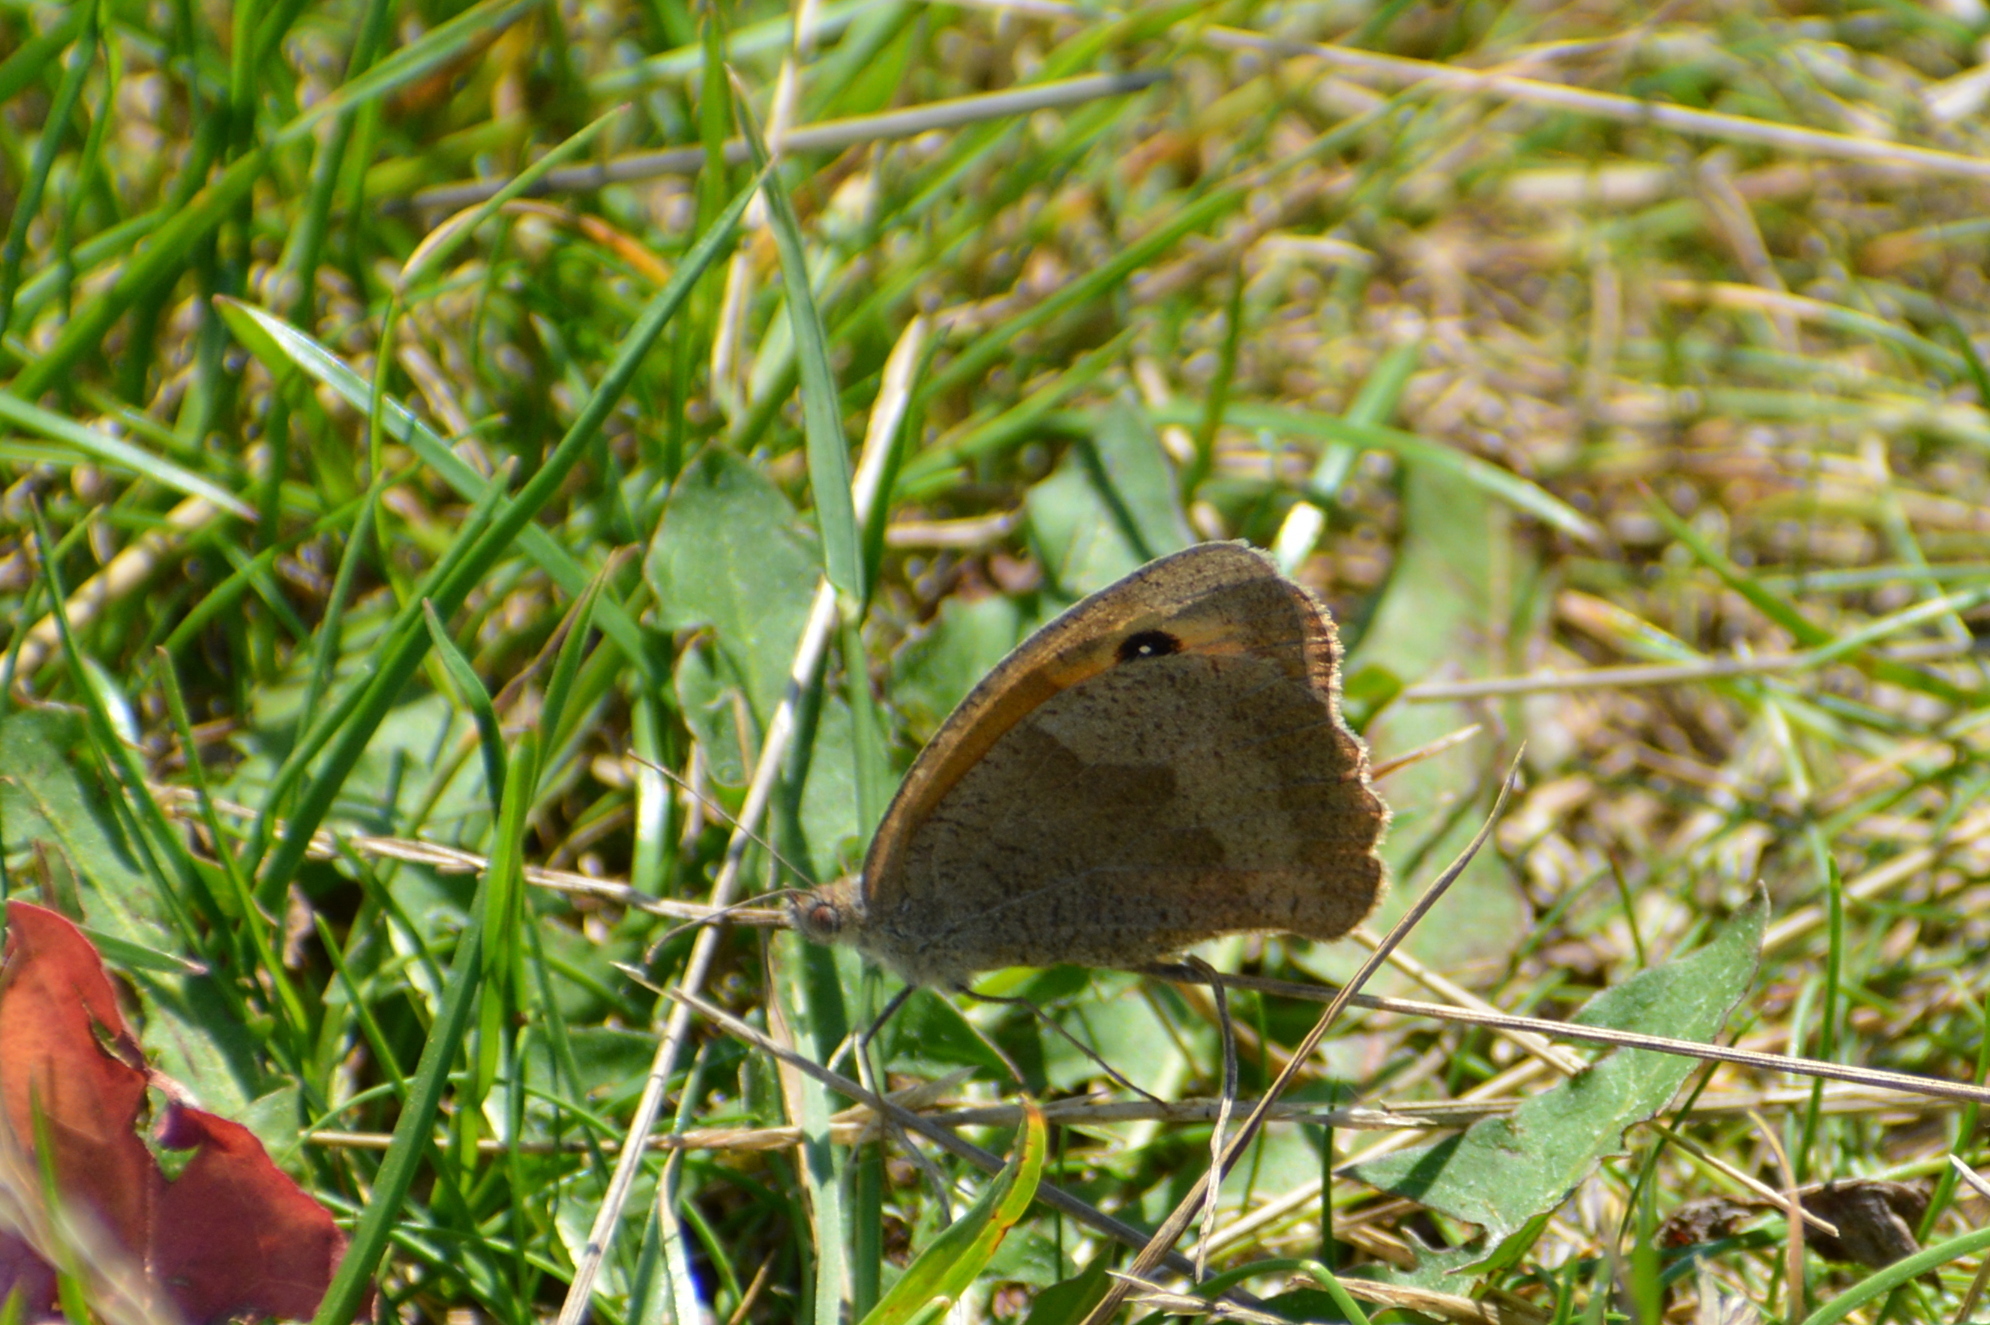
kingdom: Animalia
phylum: Arthropoda
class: Insecta
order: Lepidoptera
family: Nymphalidae
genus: Maniola
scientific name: Maniola jurtina
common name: Meadow brown
